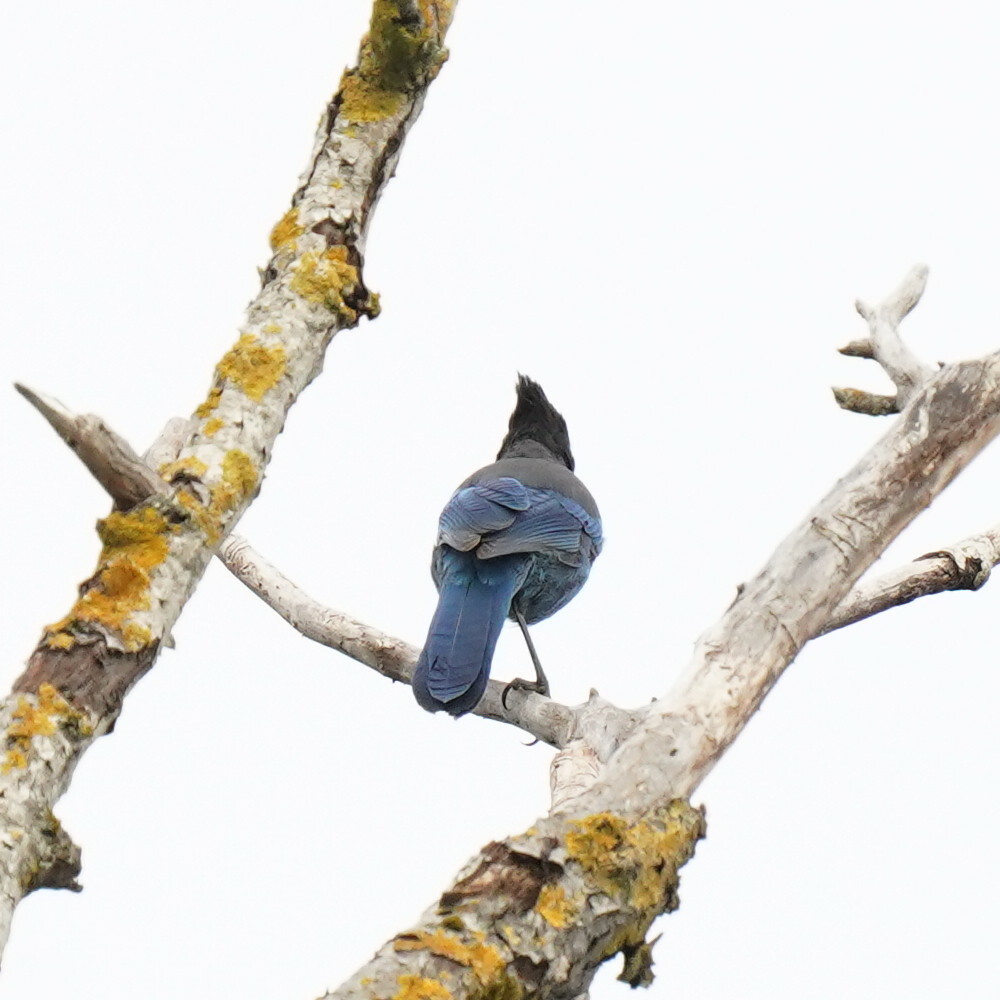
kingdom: Animalia
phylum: Chordata
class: Aves
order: Passeriformes
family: Corvidae
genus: Cyanocitta
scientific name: Cyanocitta stelleri
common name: Steller's jay
